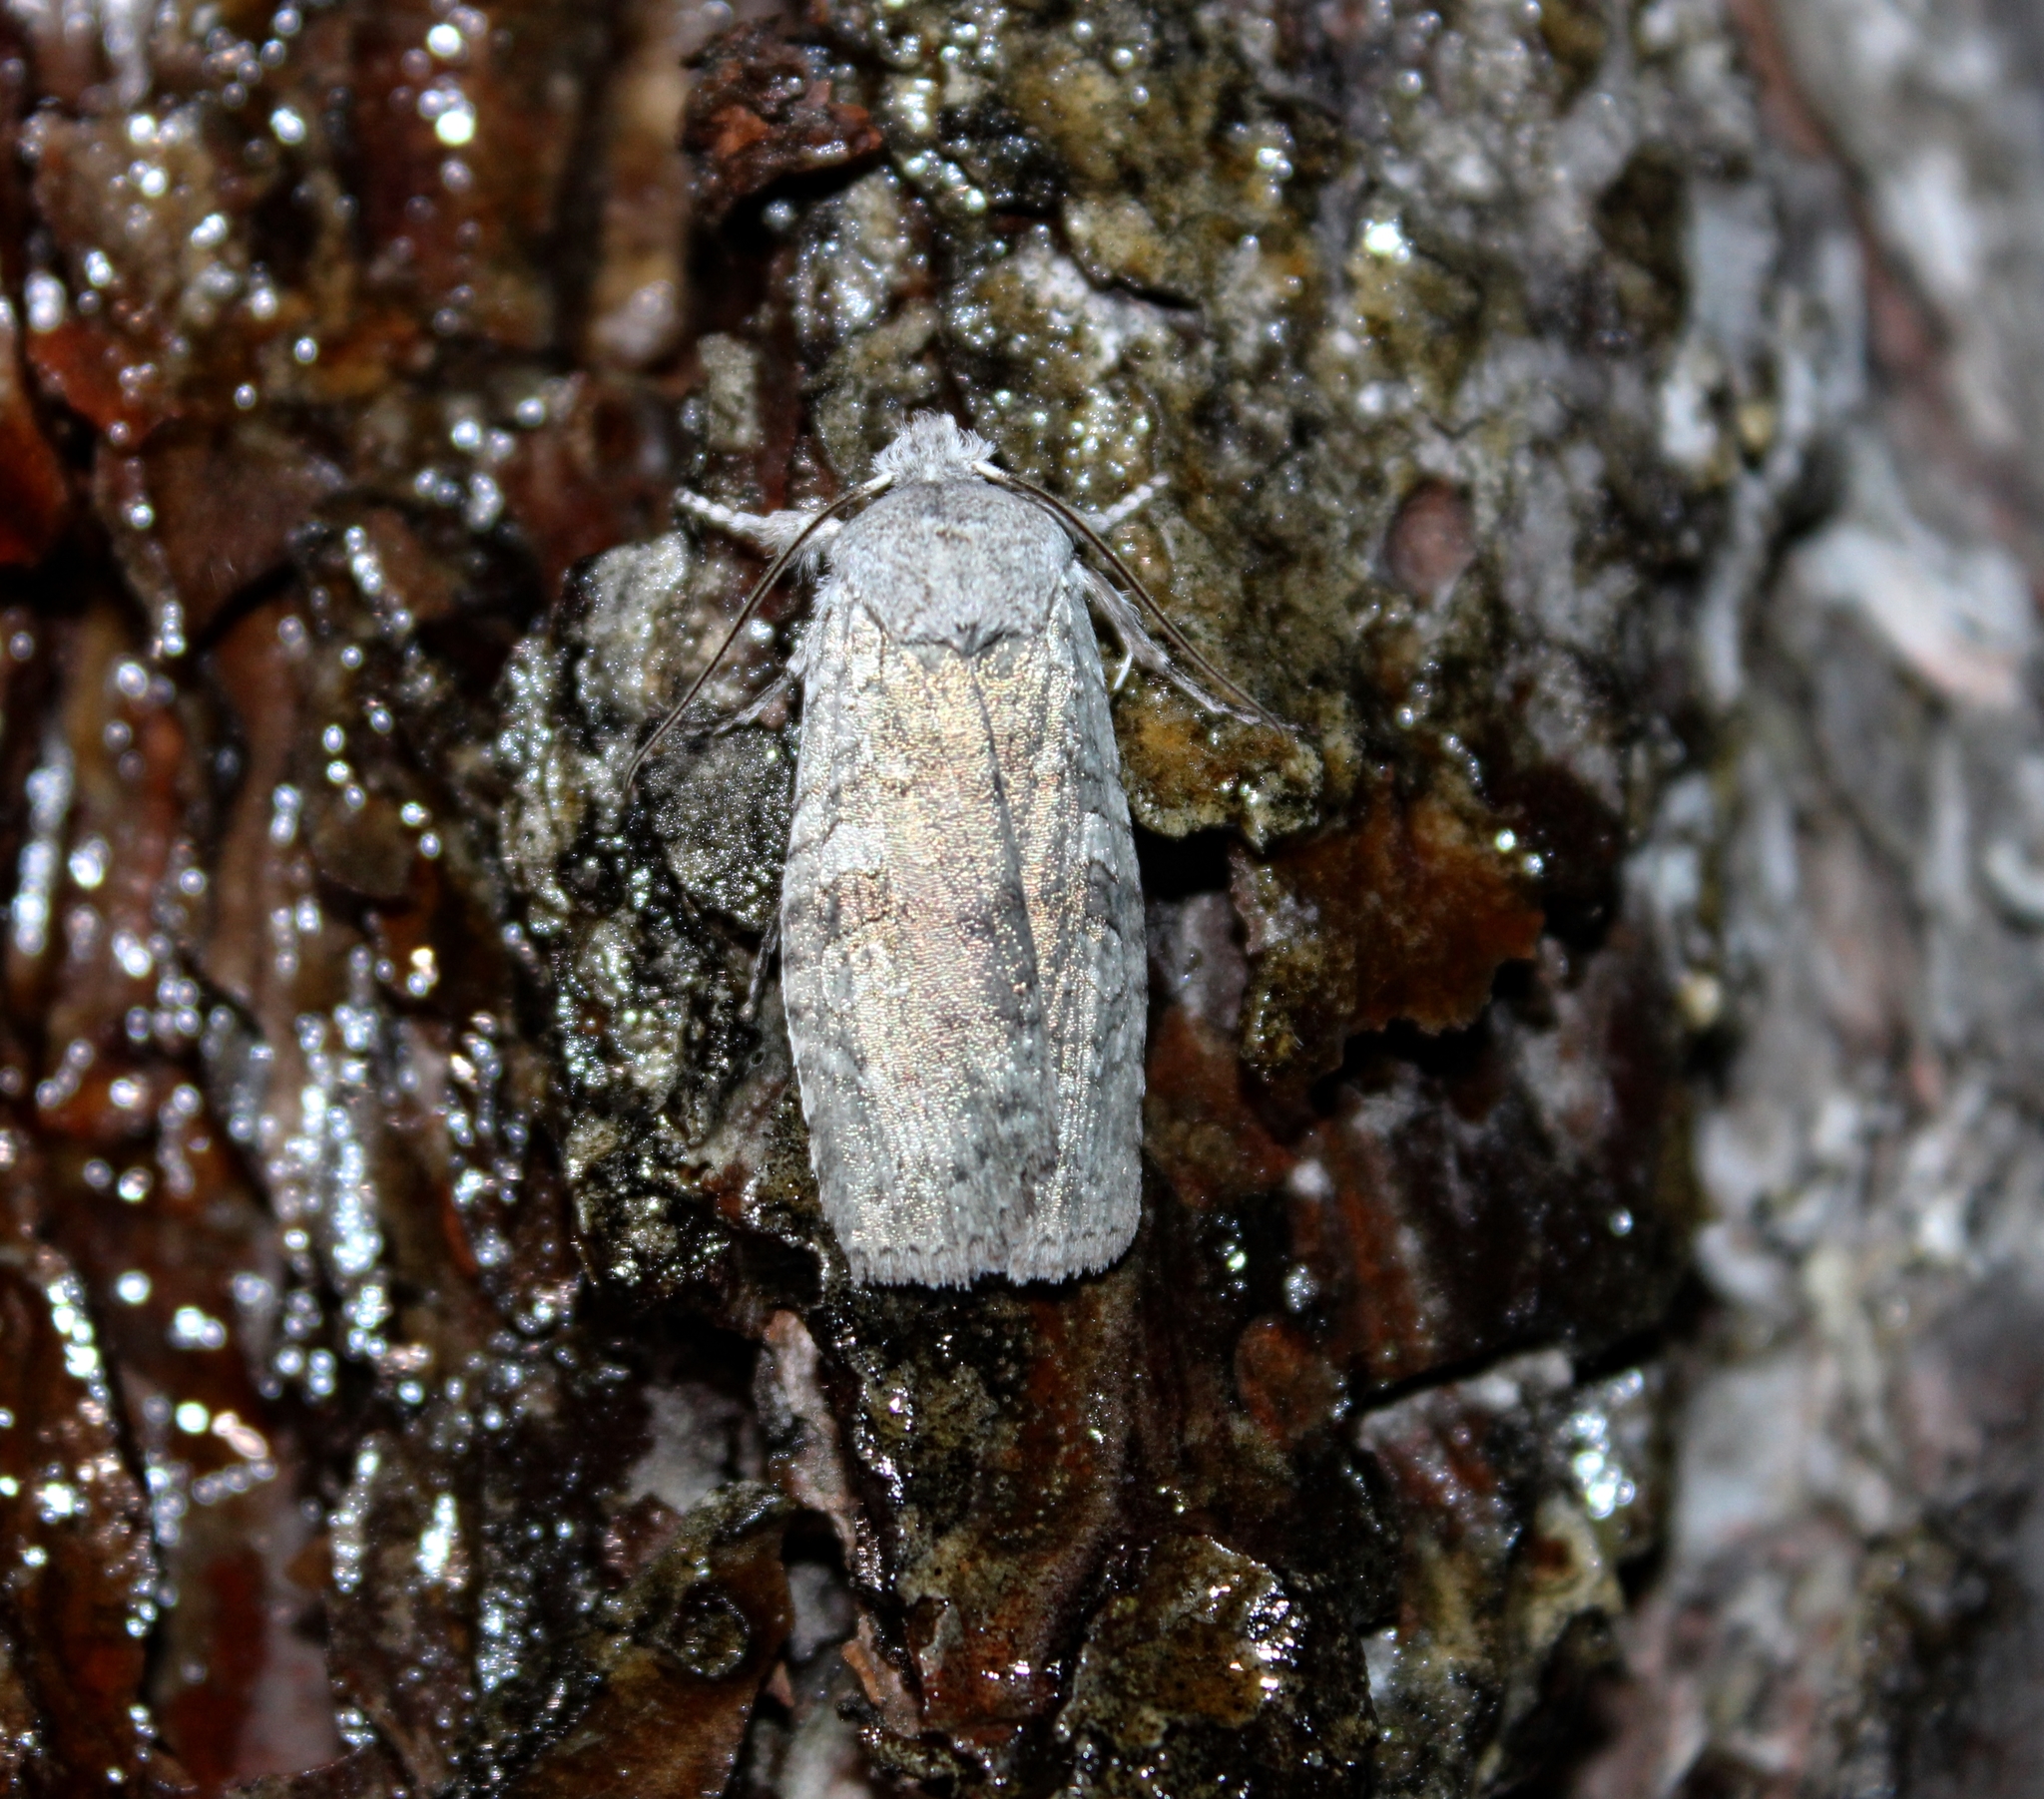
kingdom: Animalia
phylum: Arthropoda
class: Insecta
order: Lepidoptera
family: Noctuidae
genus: Lithophane
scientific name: Lithophane viridipallens
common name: Pale greeen pinion moth
